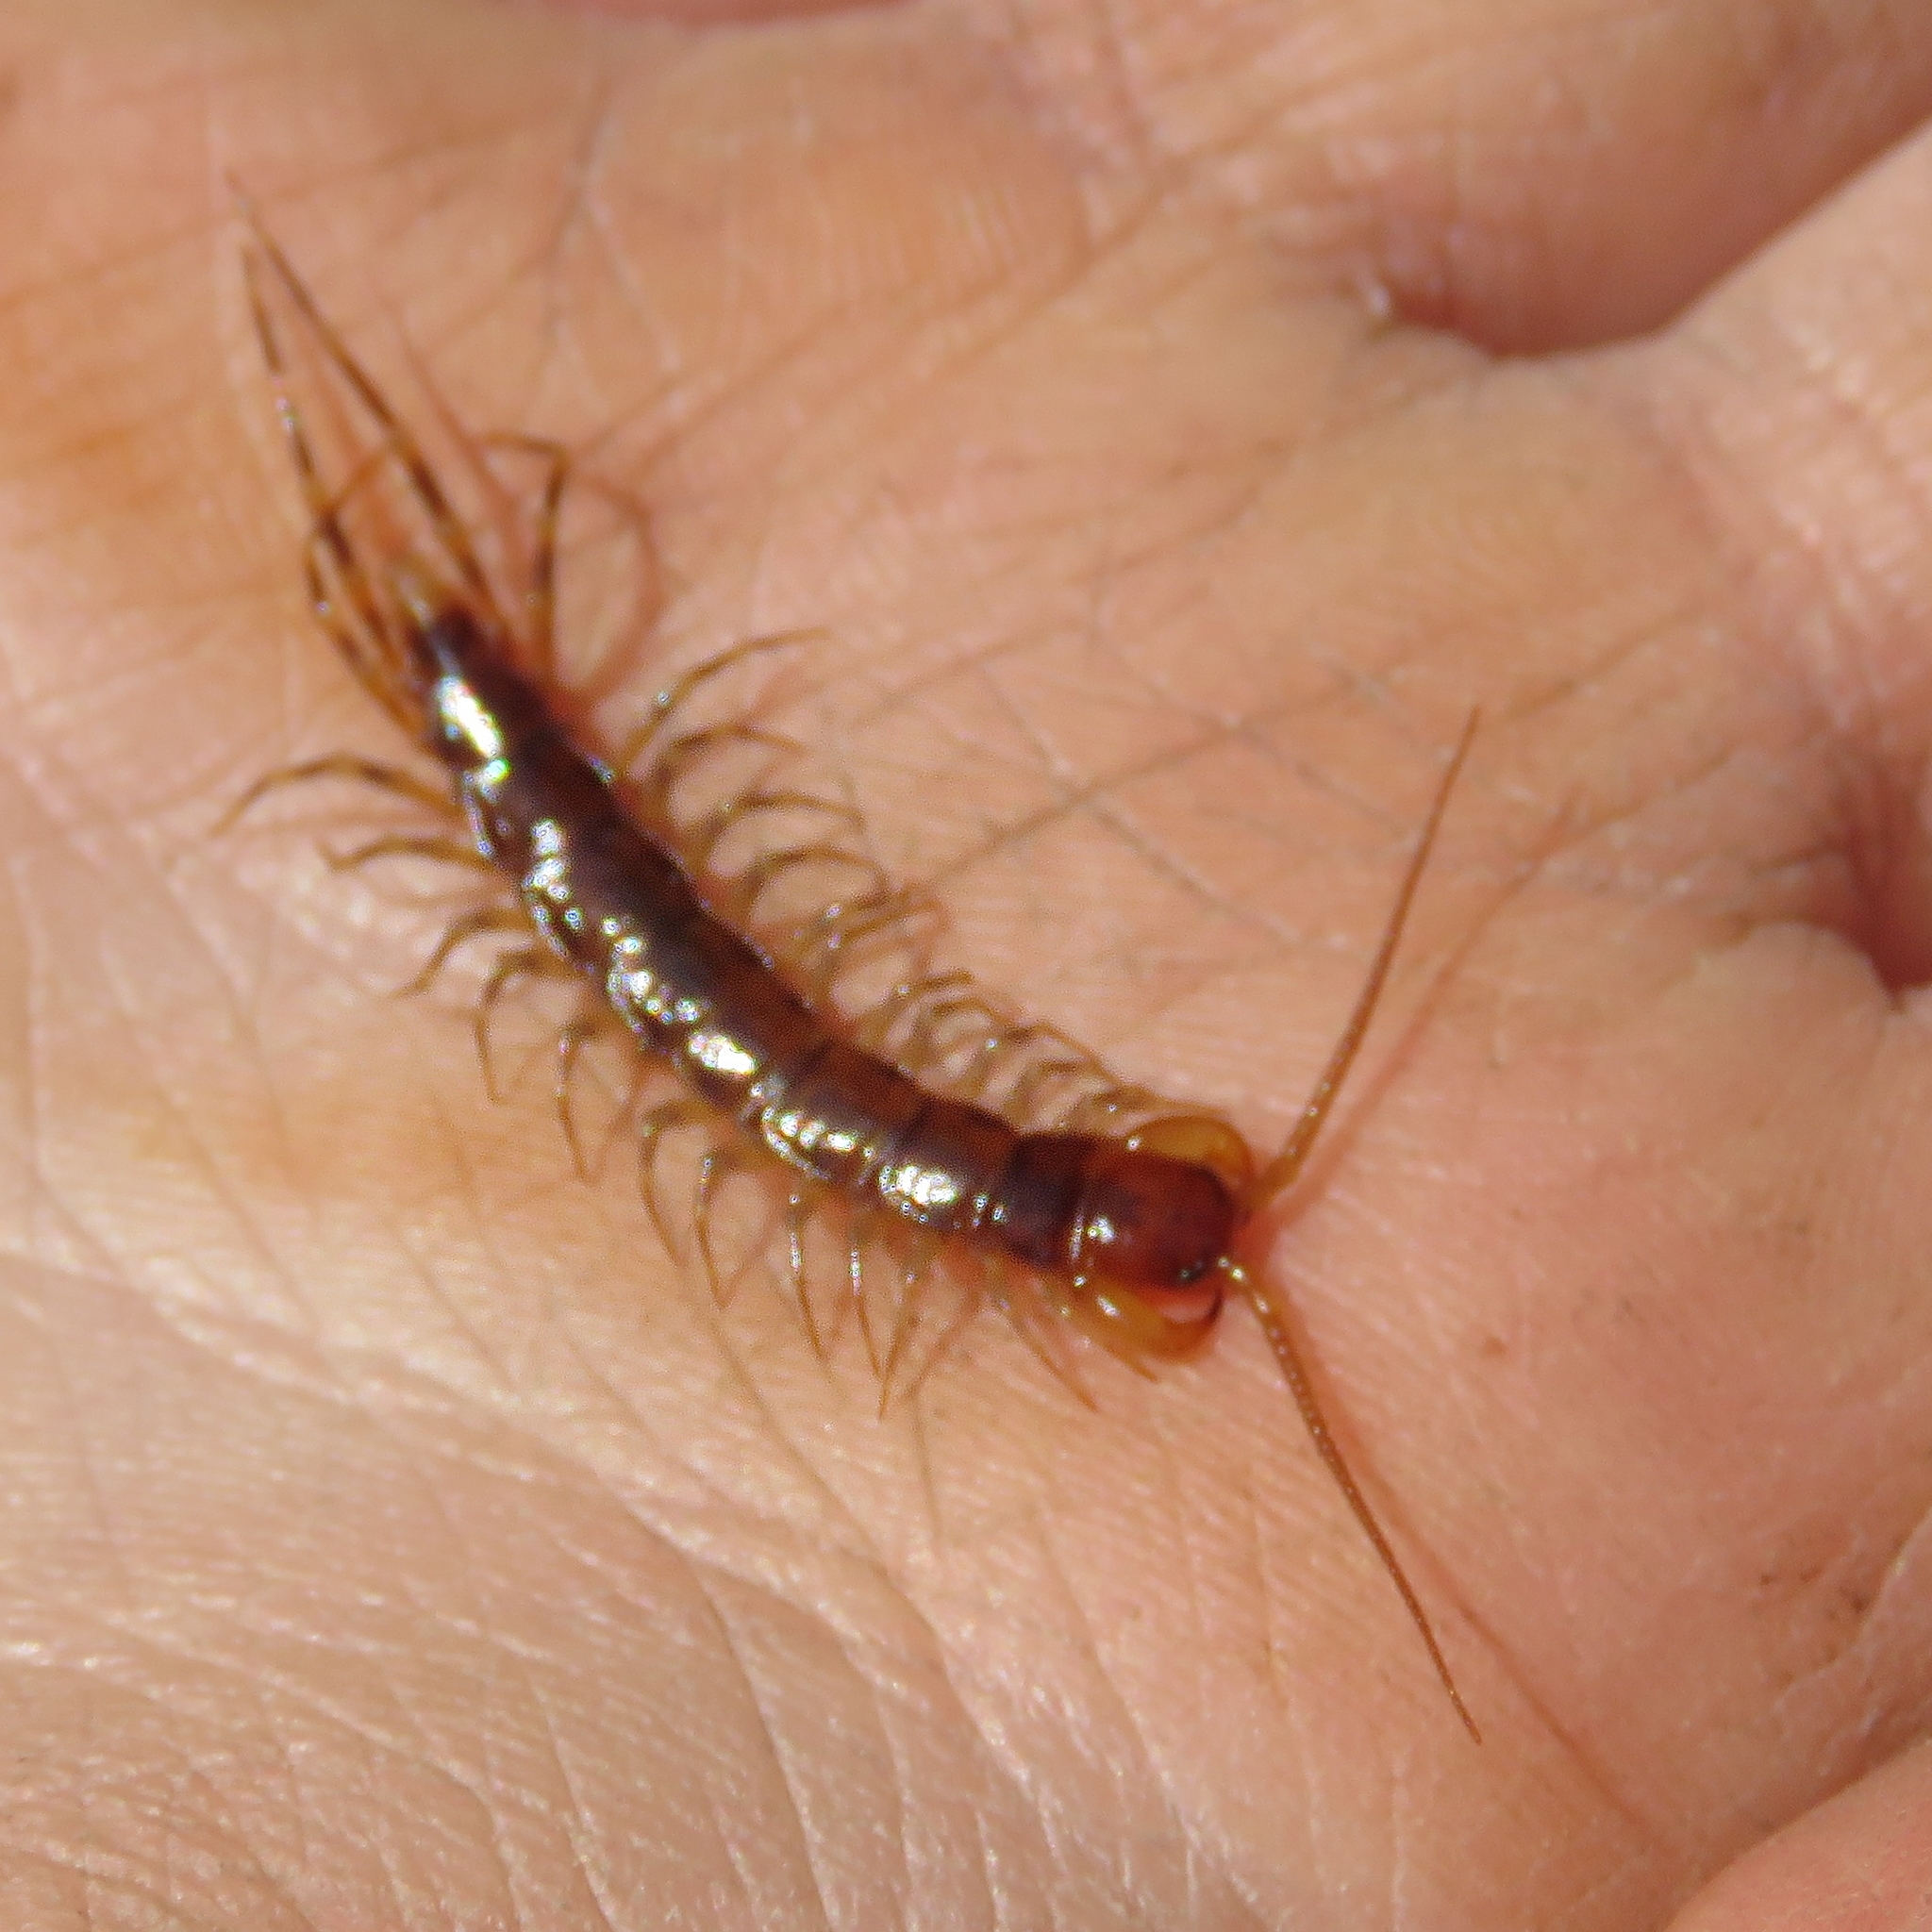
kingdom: Animalia
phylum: Arthropoda
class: Chilopoda
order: Lithobiomorpha
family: Lithobiidae
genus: Lithobius
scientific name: Lithobius variegatus
